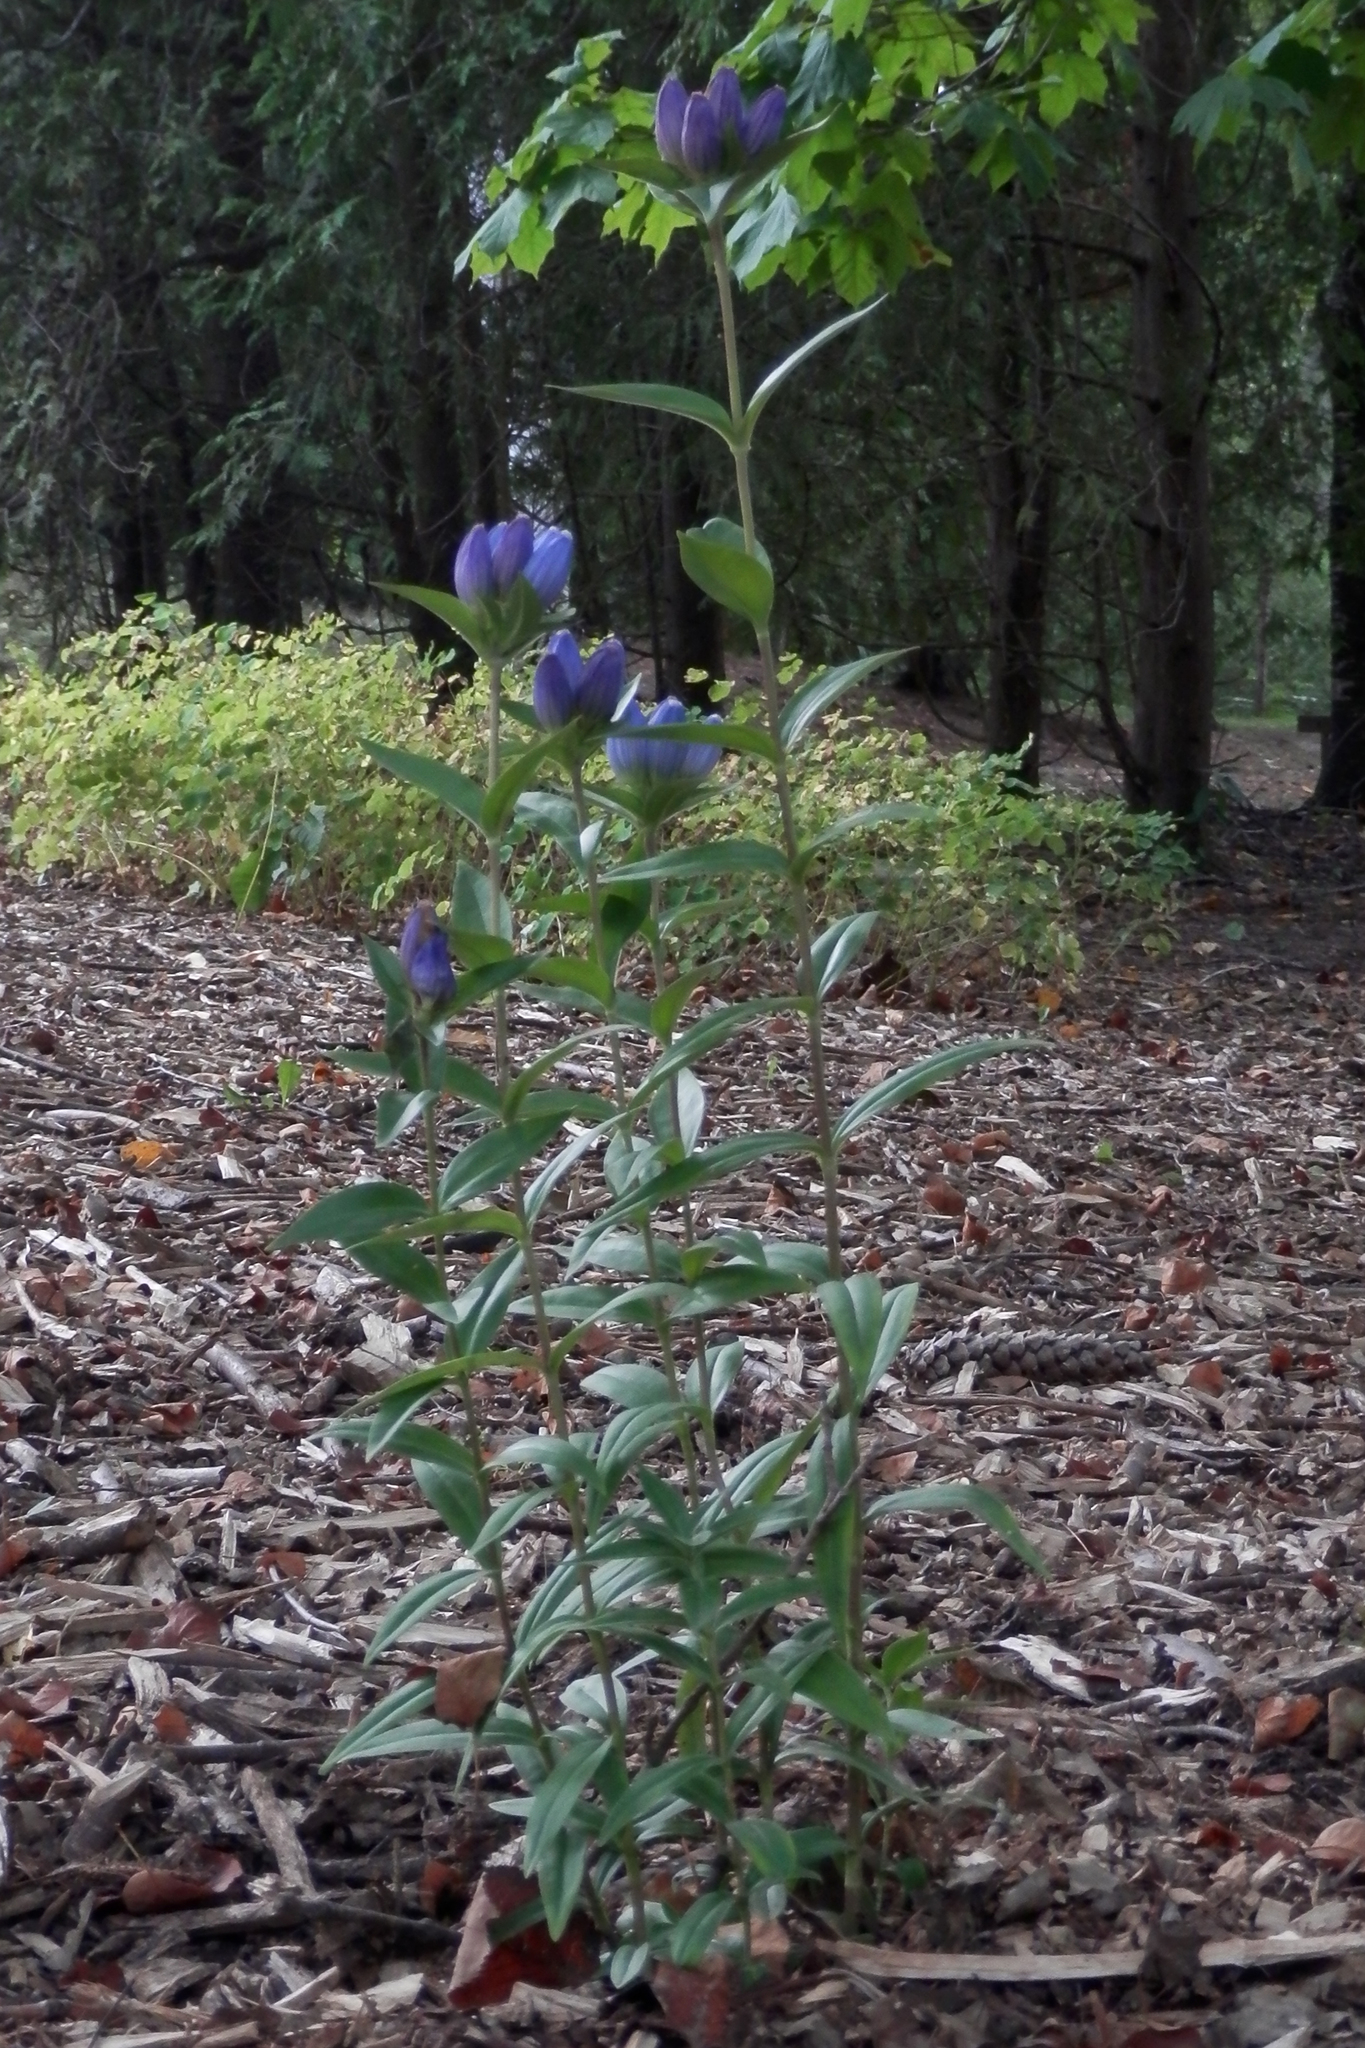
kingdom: Plantae
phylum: Tracheophyta
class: Magnoliopsida
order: Gentianales
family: Gentianaceae
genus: Gentiana
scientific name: Gentiana andrewsii
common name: Bottle gentian
